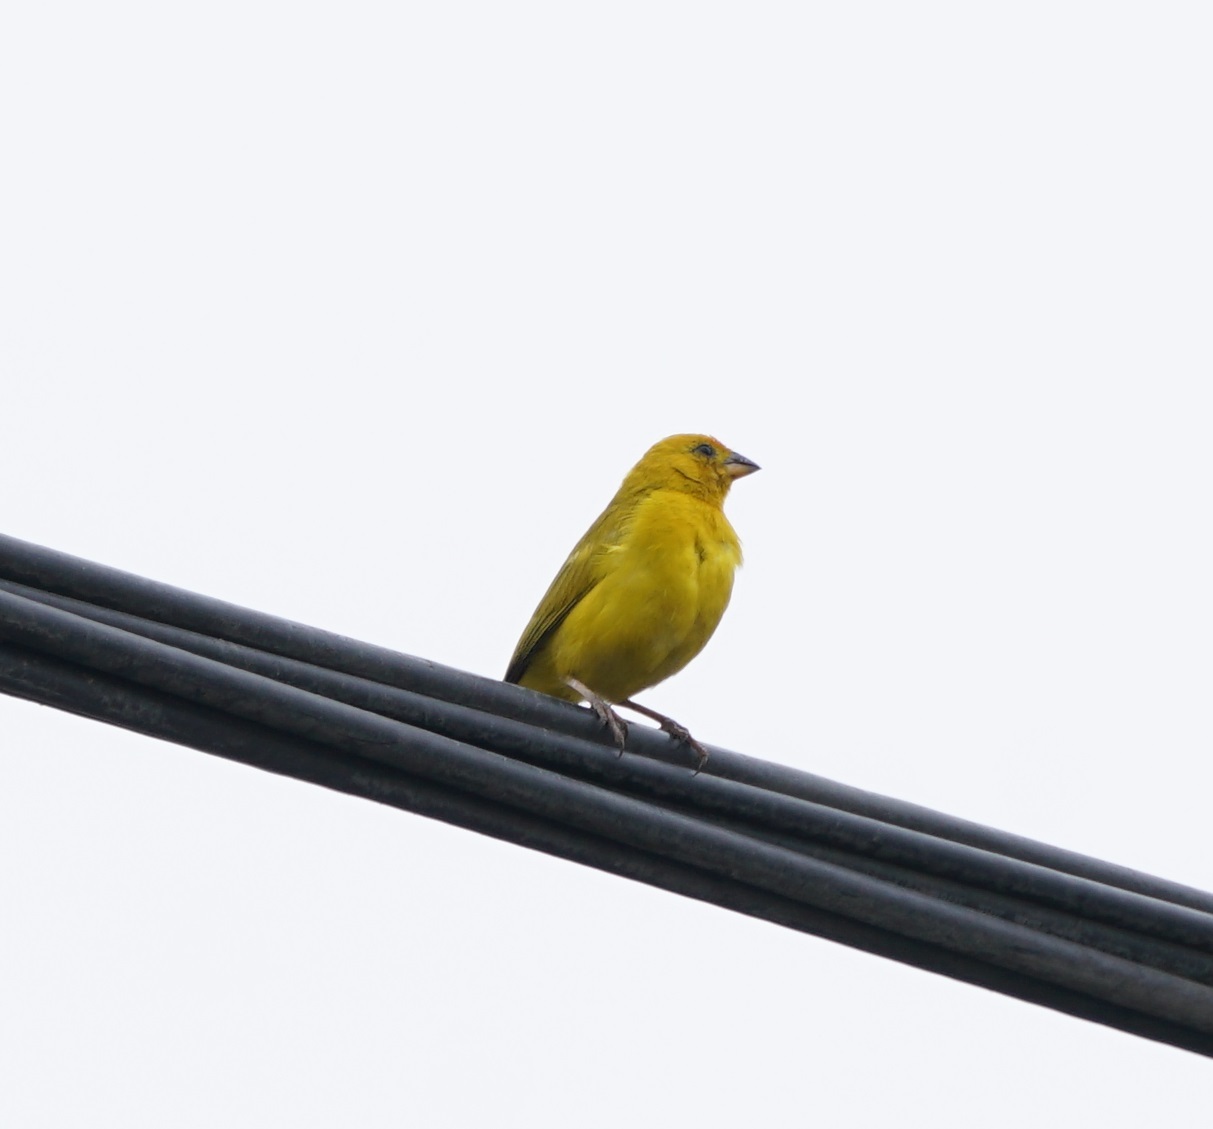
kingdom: Animalia
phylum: Chordata
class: Aves
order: Passeriformes
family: Thraupidae
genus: Sicalis
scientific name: Sicalis flaveola
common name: Saffron finch
